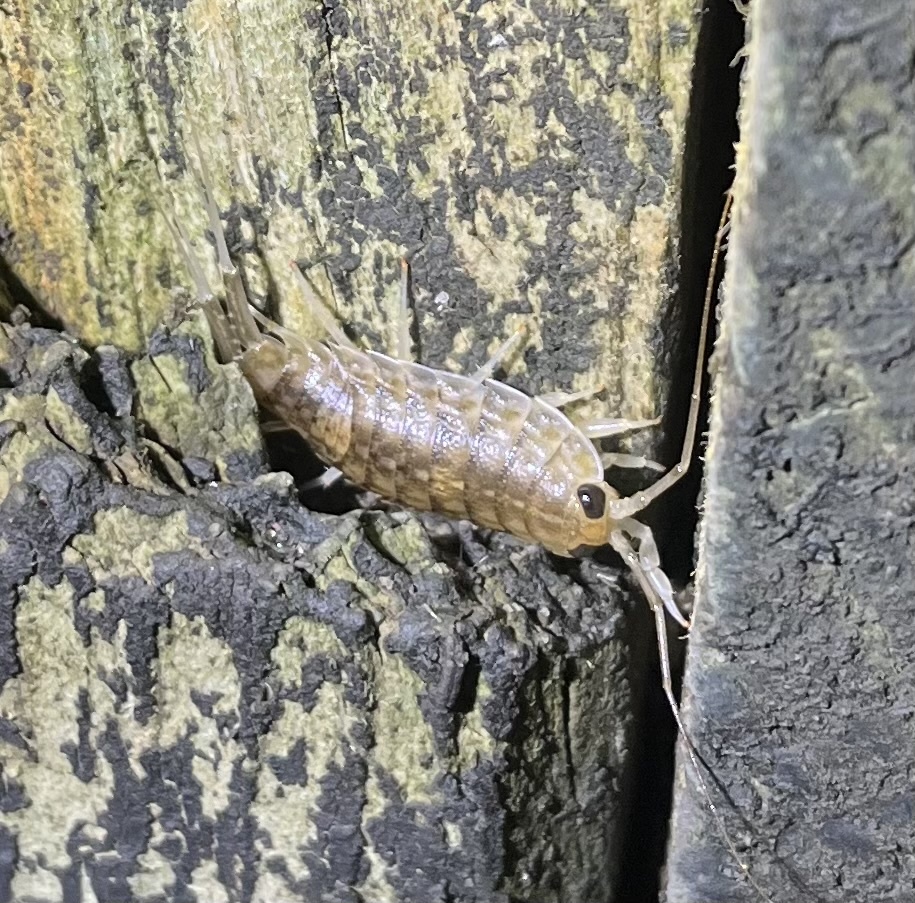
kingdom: Animalia
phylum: Arthropoda
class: Malacostraca
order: Isopoda
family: Ligiidae
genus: Ligia
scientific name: Ligia exotica
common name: Wharf roach
